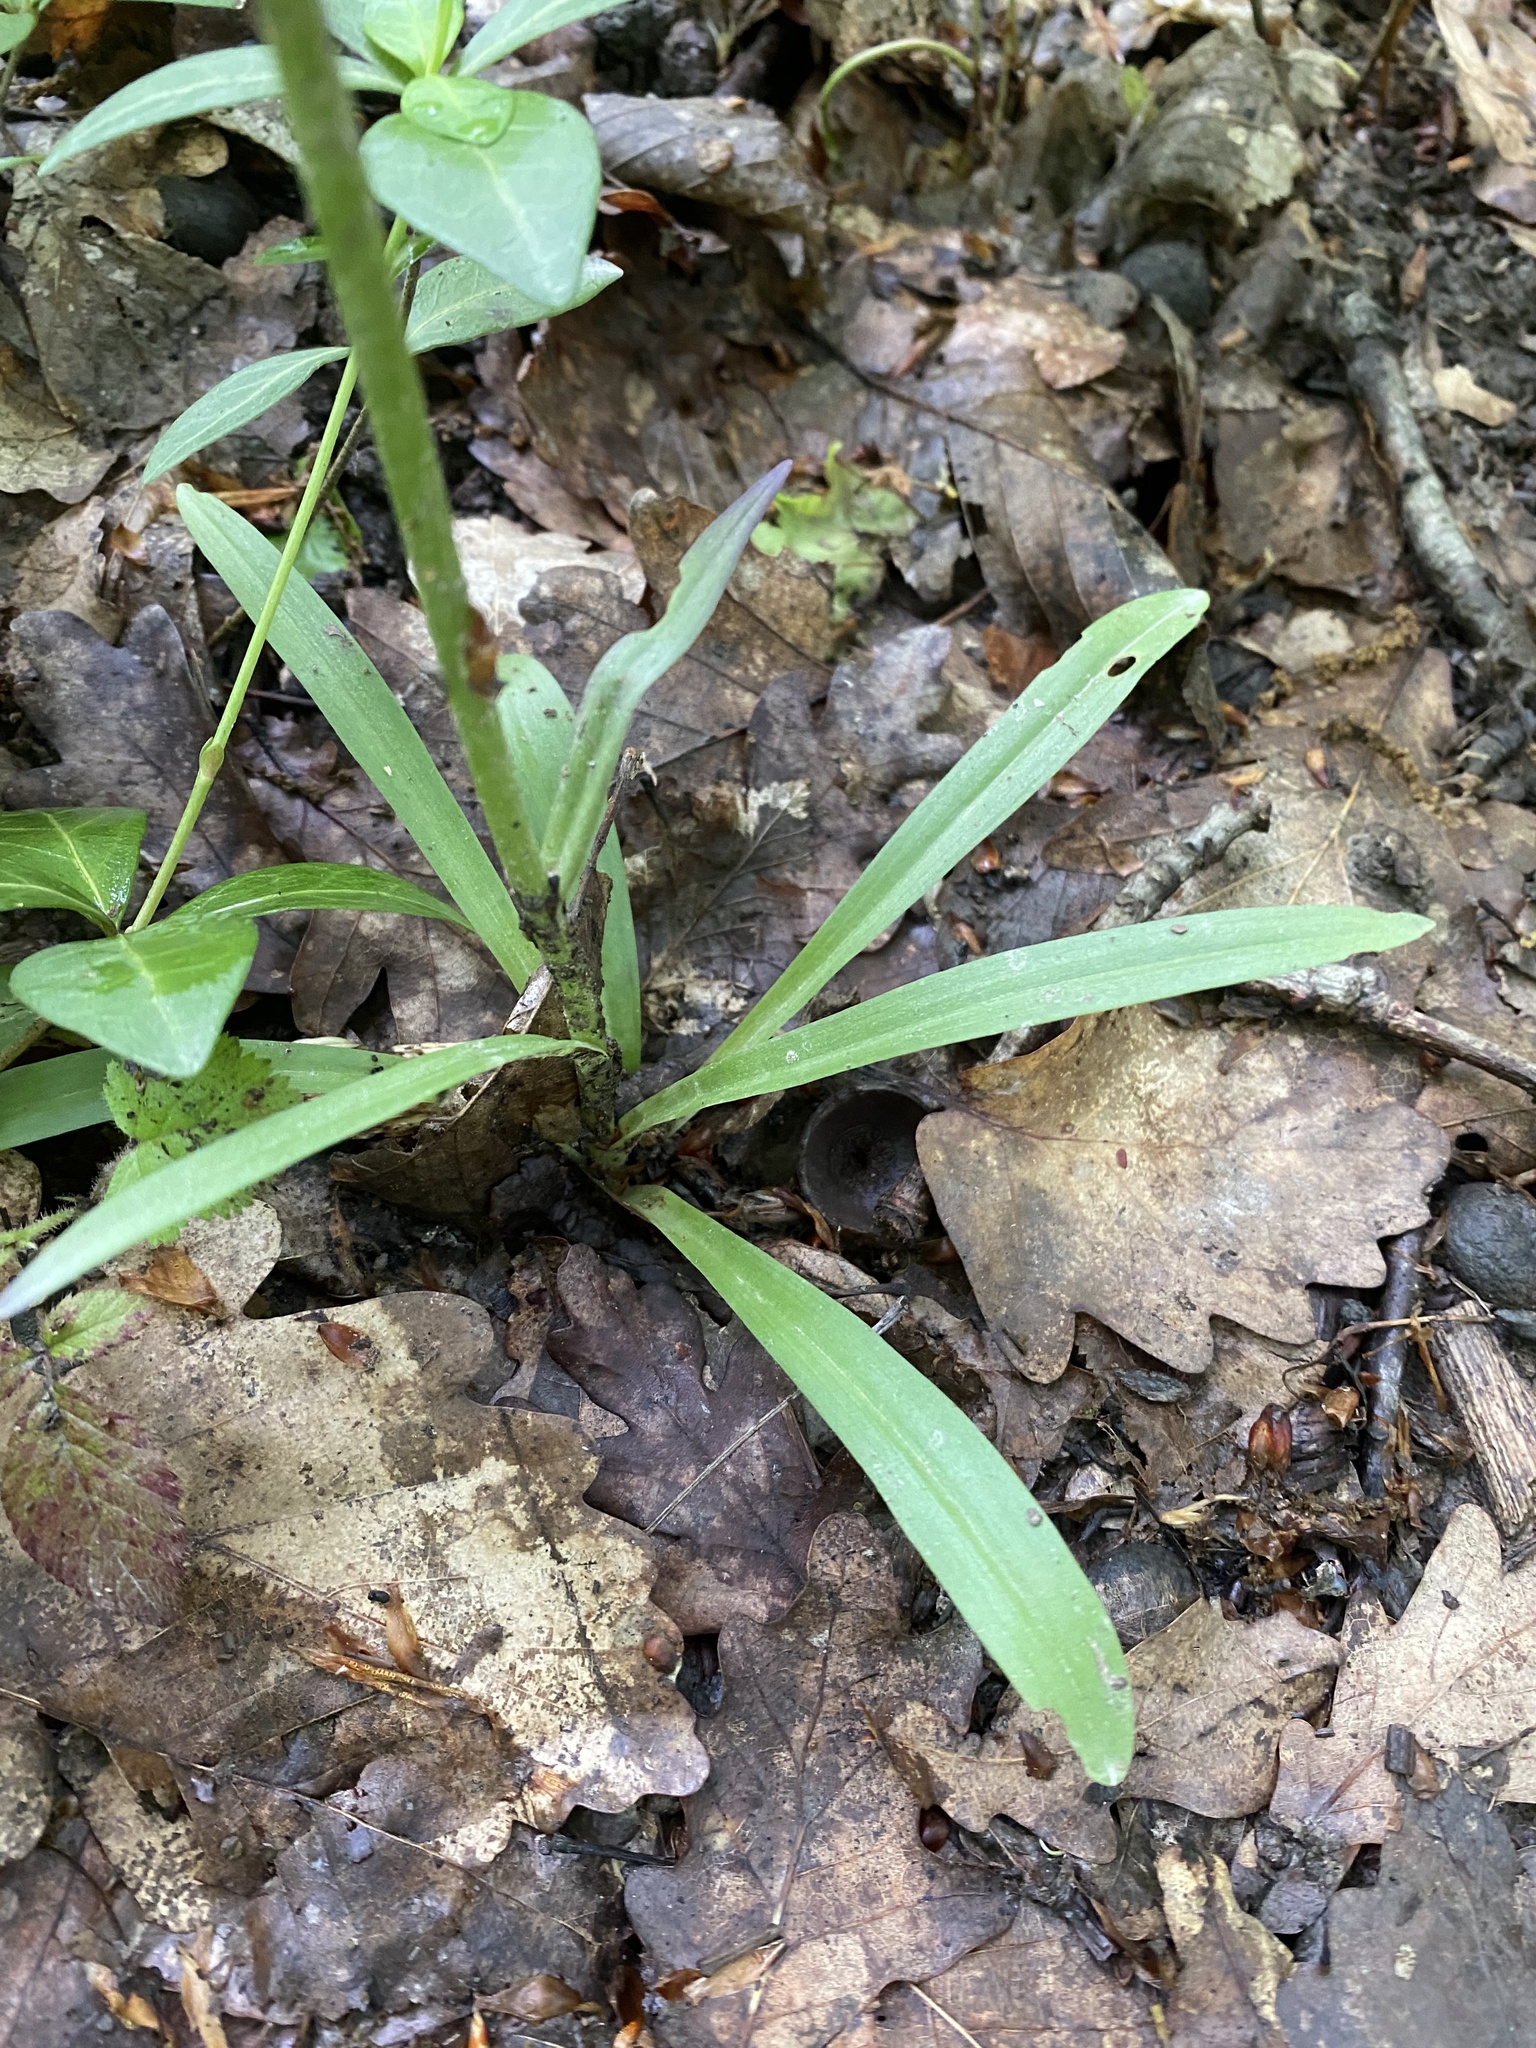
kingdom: Plantae
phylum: Tracheophyta
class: Liliopsida
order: Asparagales
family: Orchidaceae
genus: Dactylorhiza
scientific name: Dactylorhiza romana
